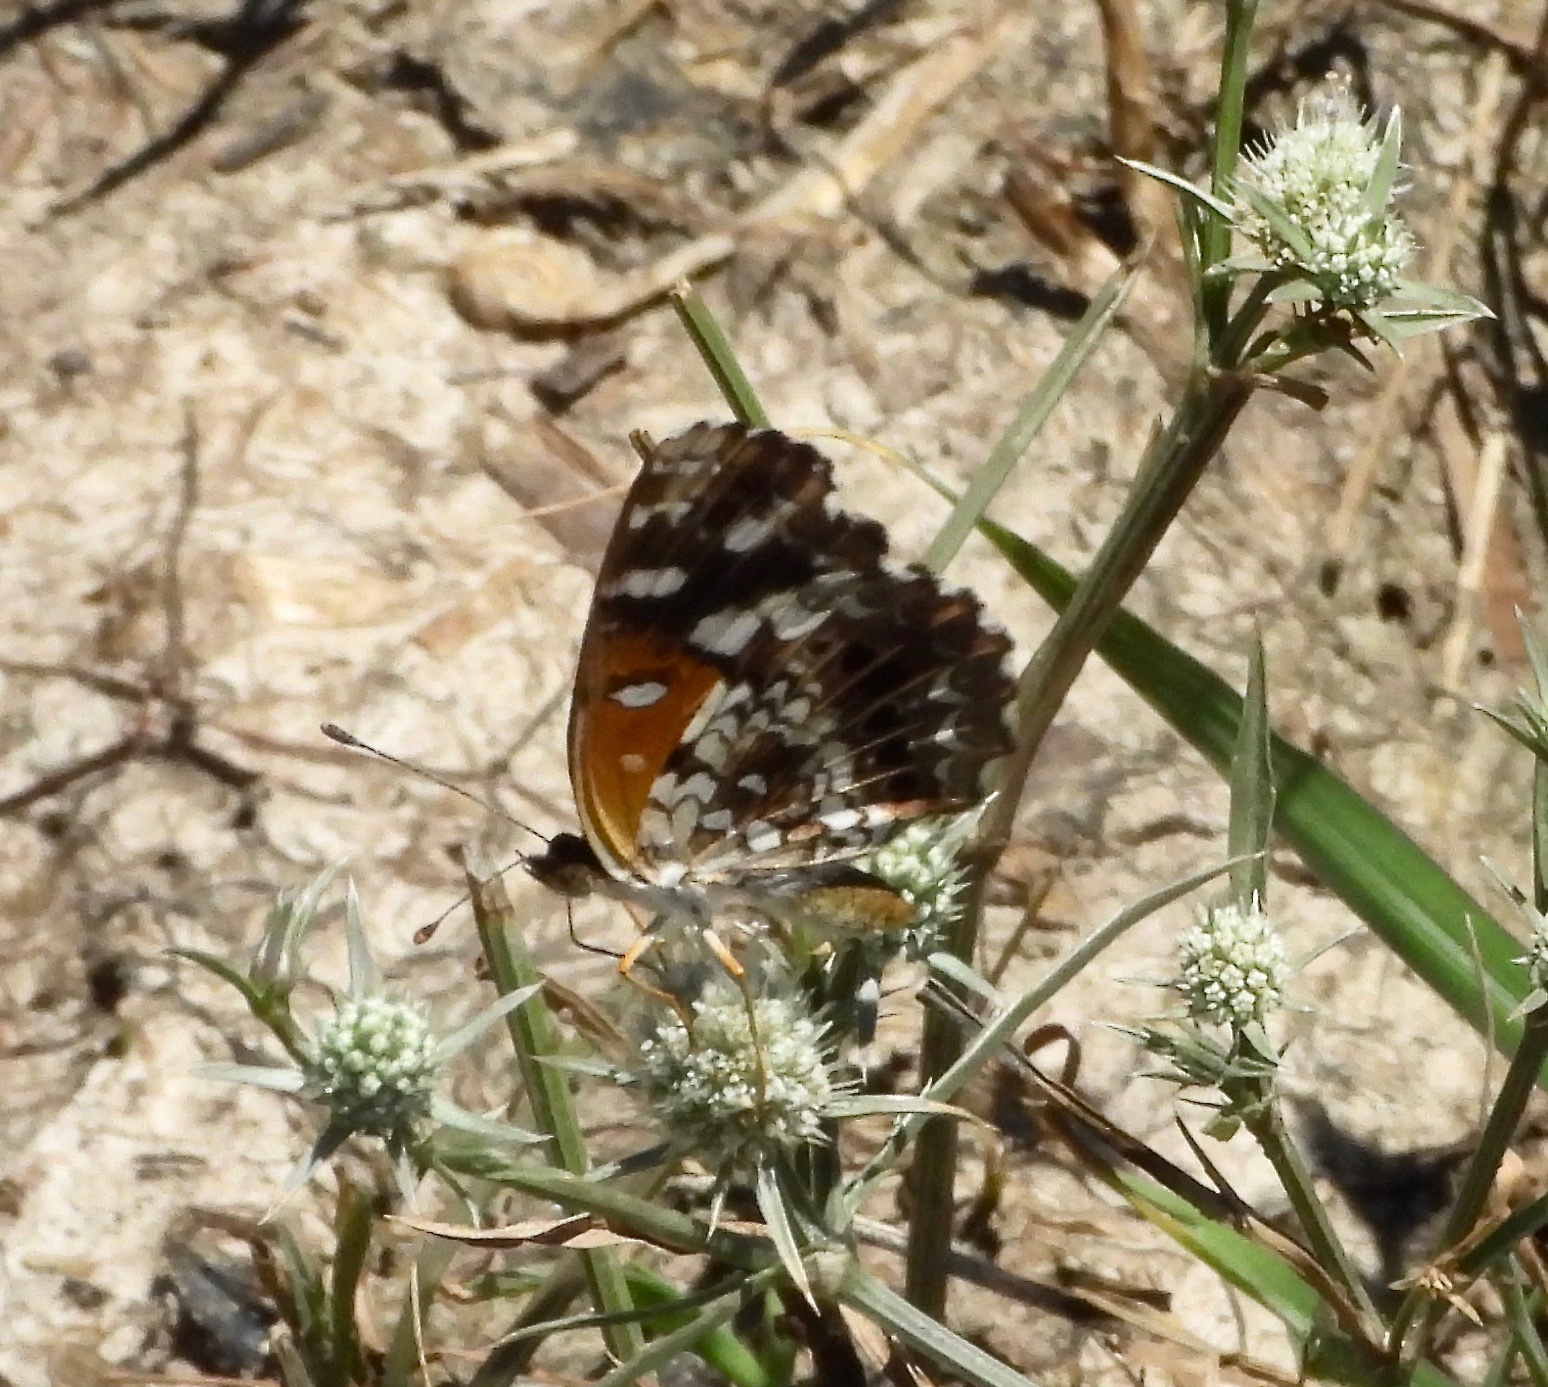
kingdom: Animalia
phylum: Arthropoda
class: Insecta
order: Lepidoptera
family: Nymphalidae
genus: Ortilia
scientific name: Ortilia ithra
